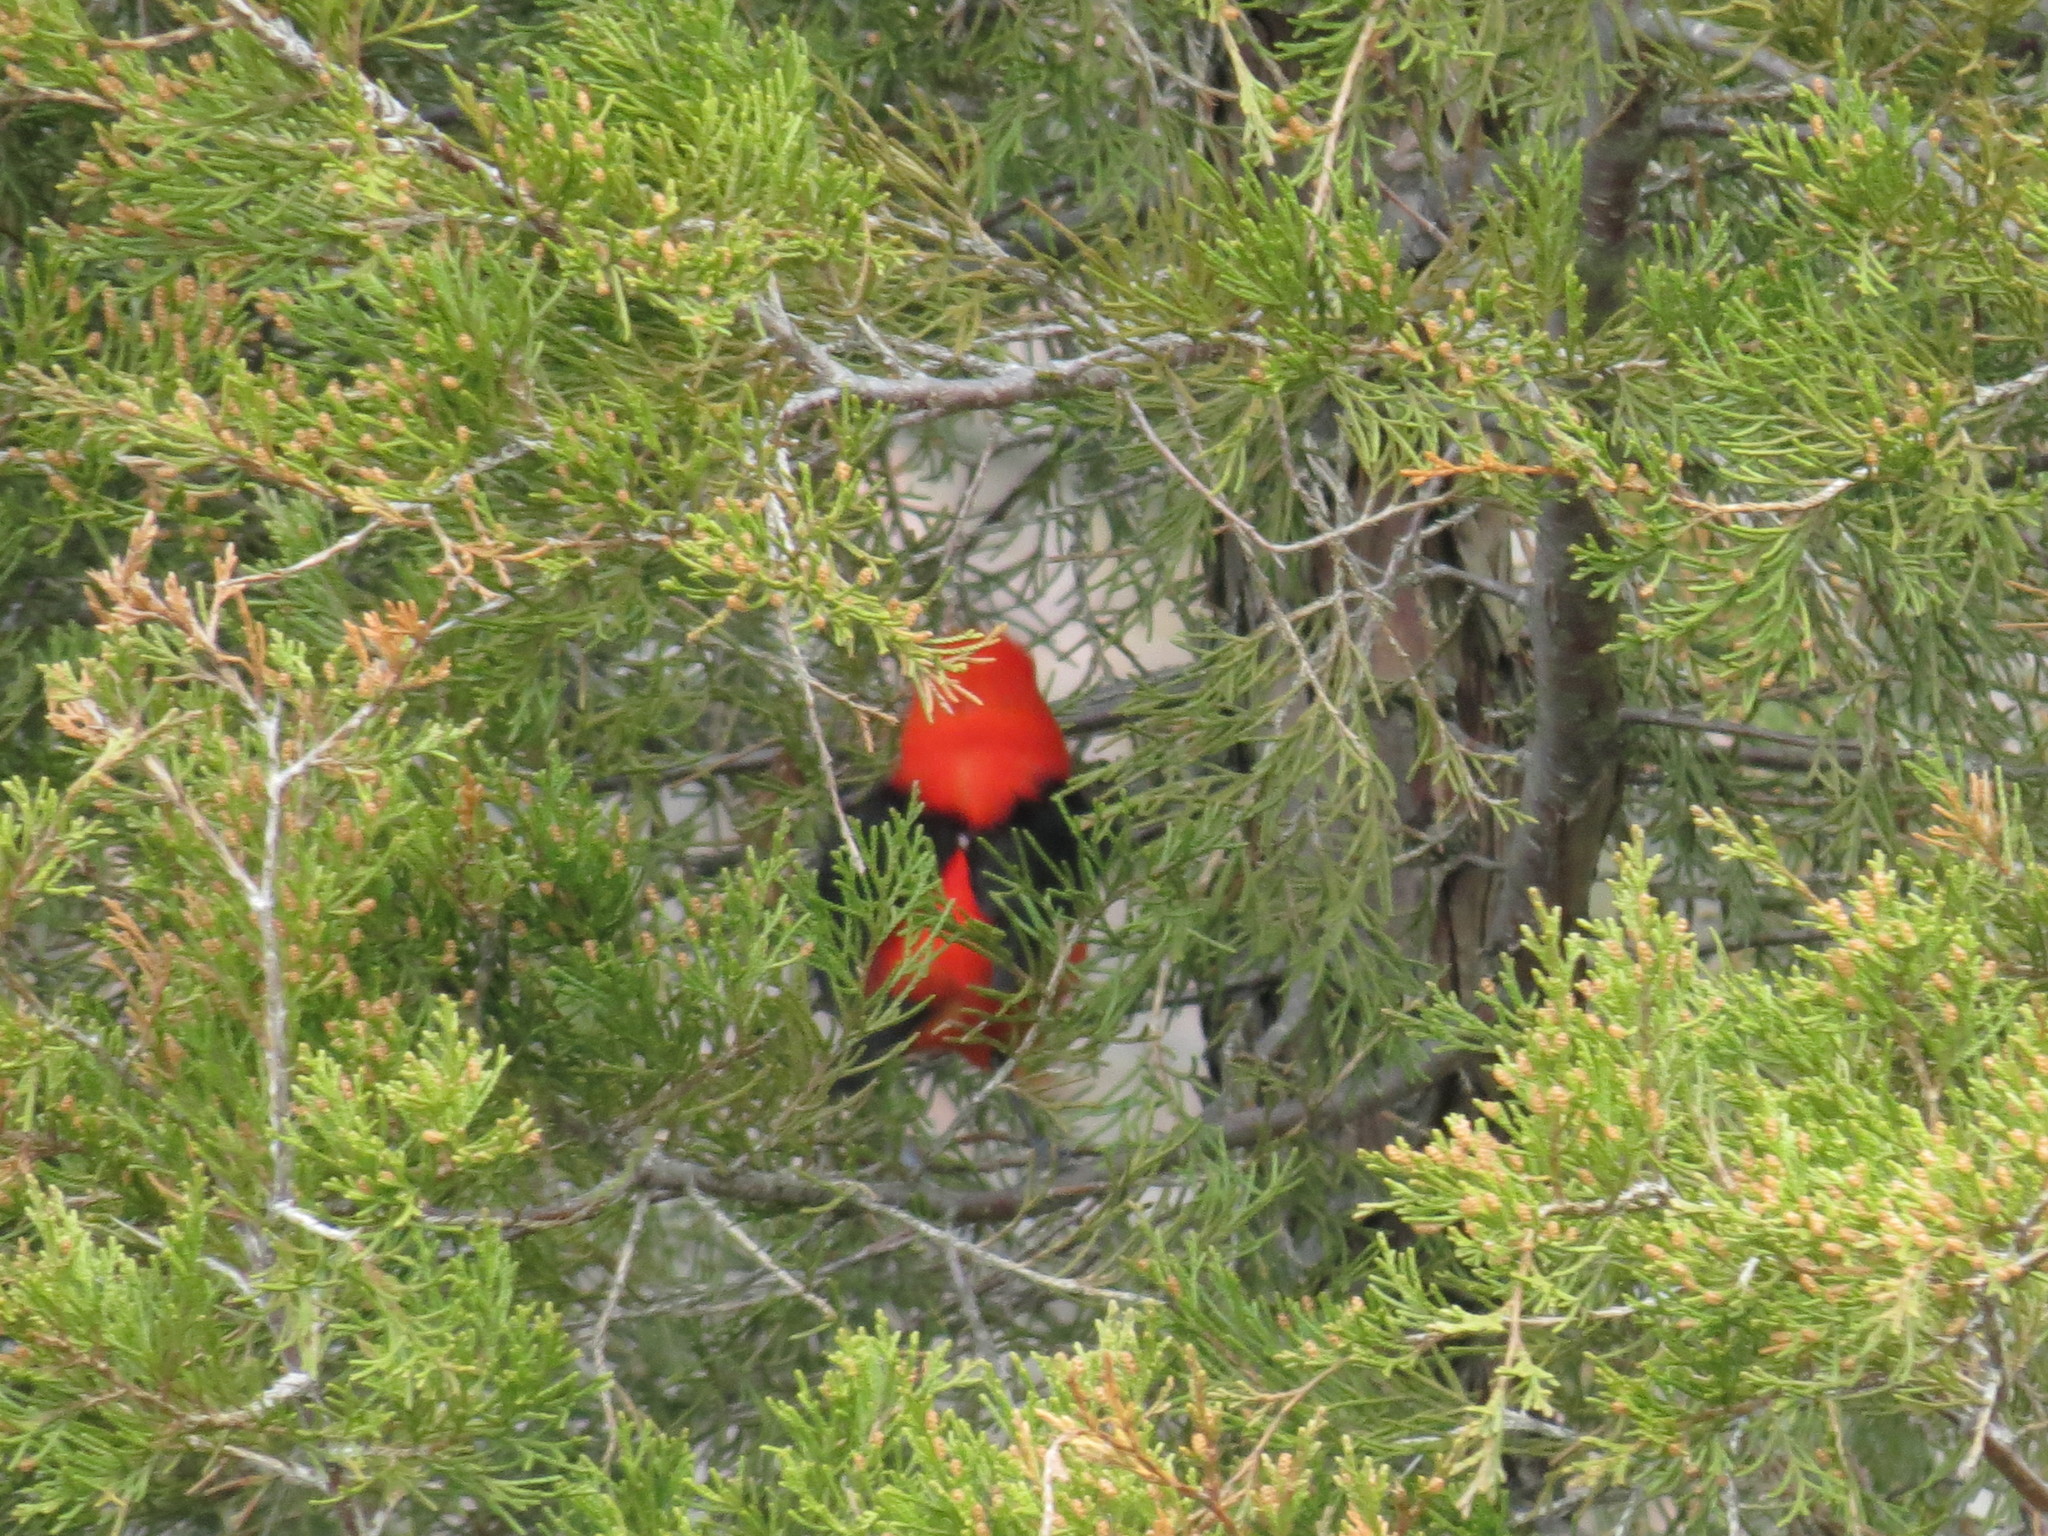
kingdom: Animalia
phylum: Chordata
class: Aves
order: Passeriformes
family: Cardinalidae
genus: Piranga
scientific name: Piranga olivacea
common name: Scarlet tanager
